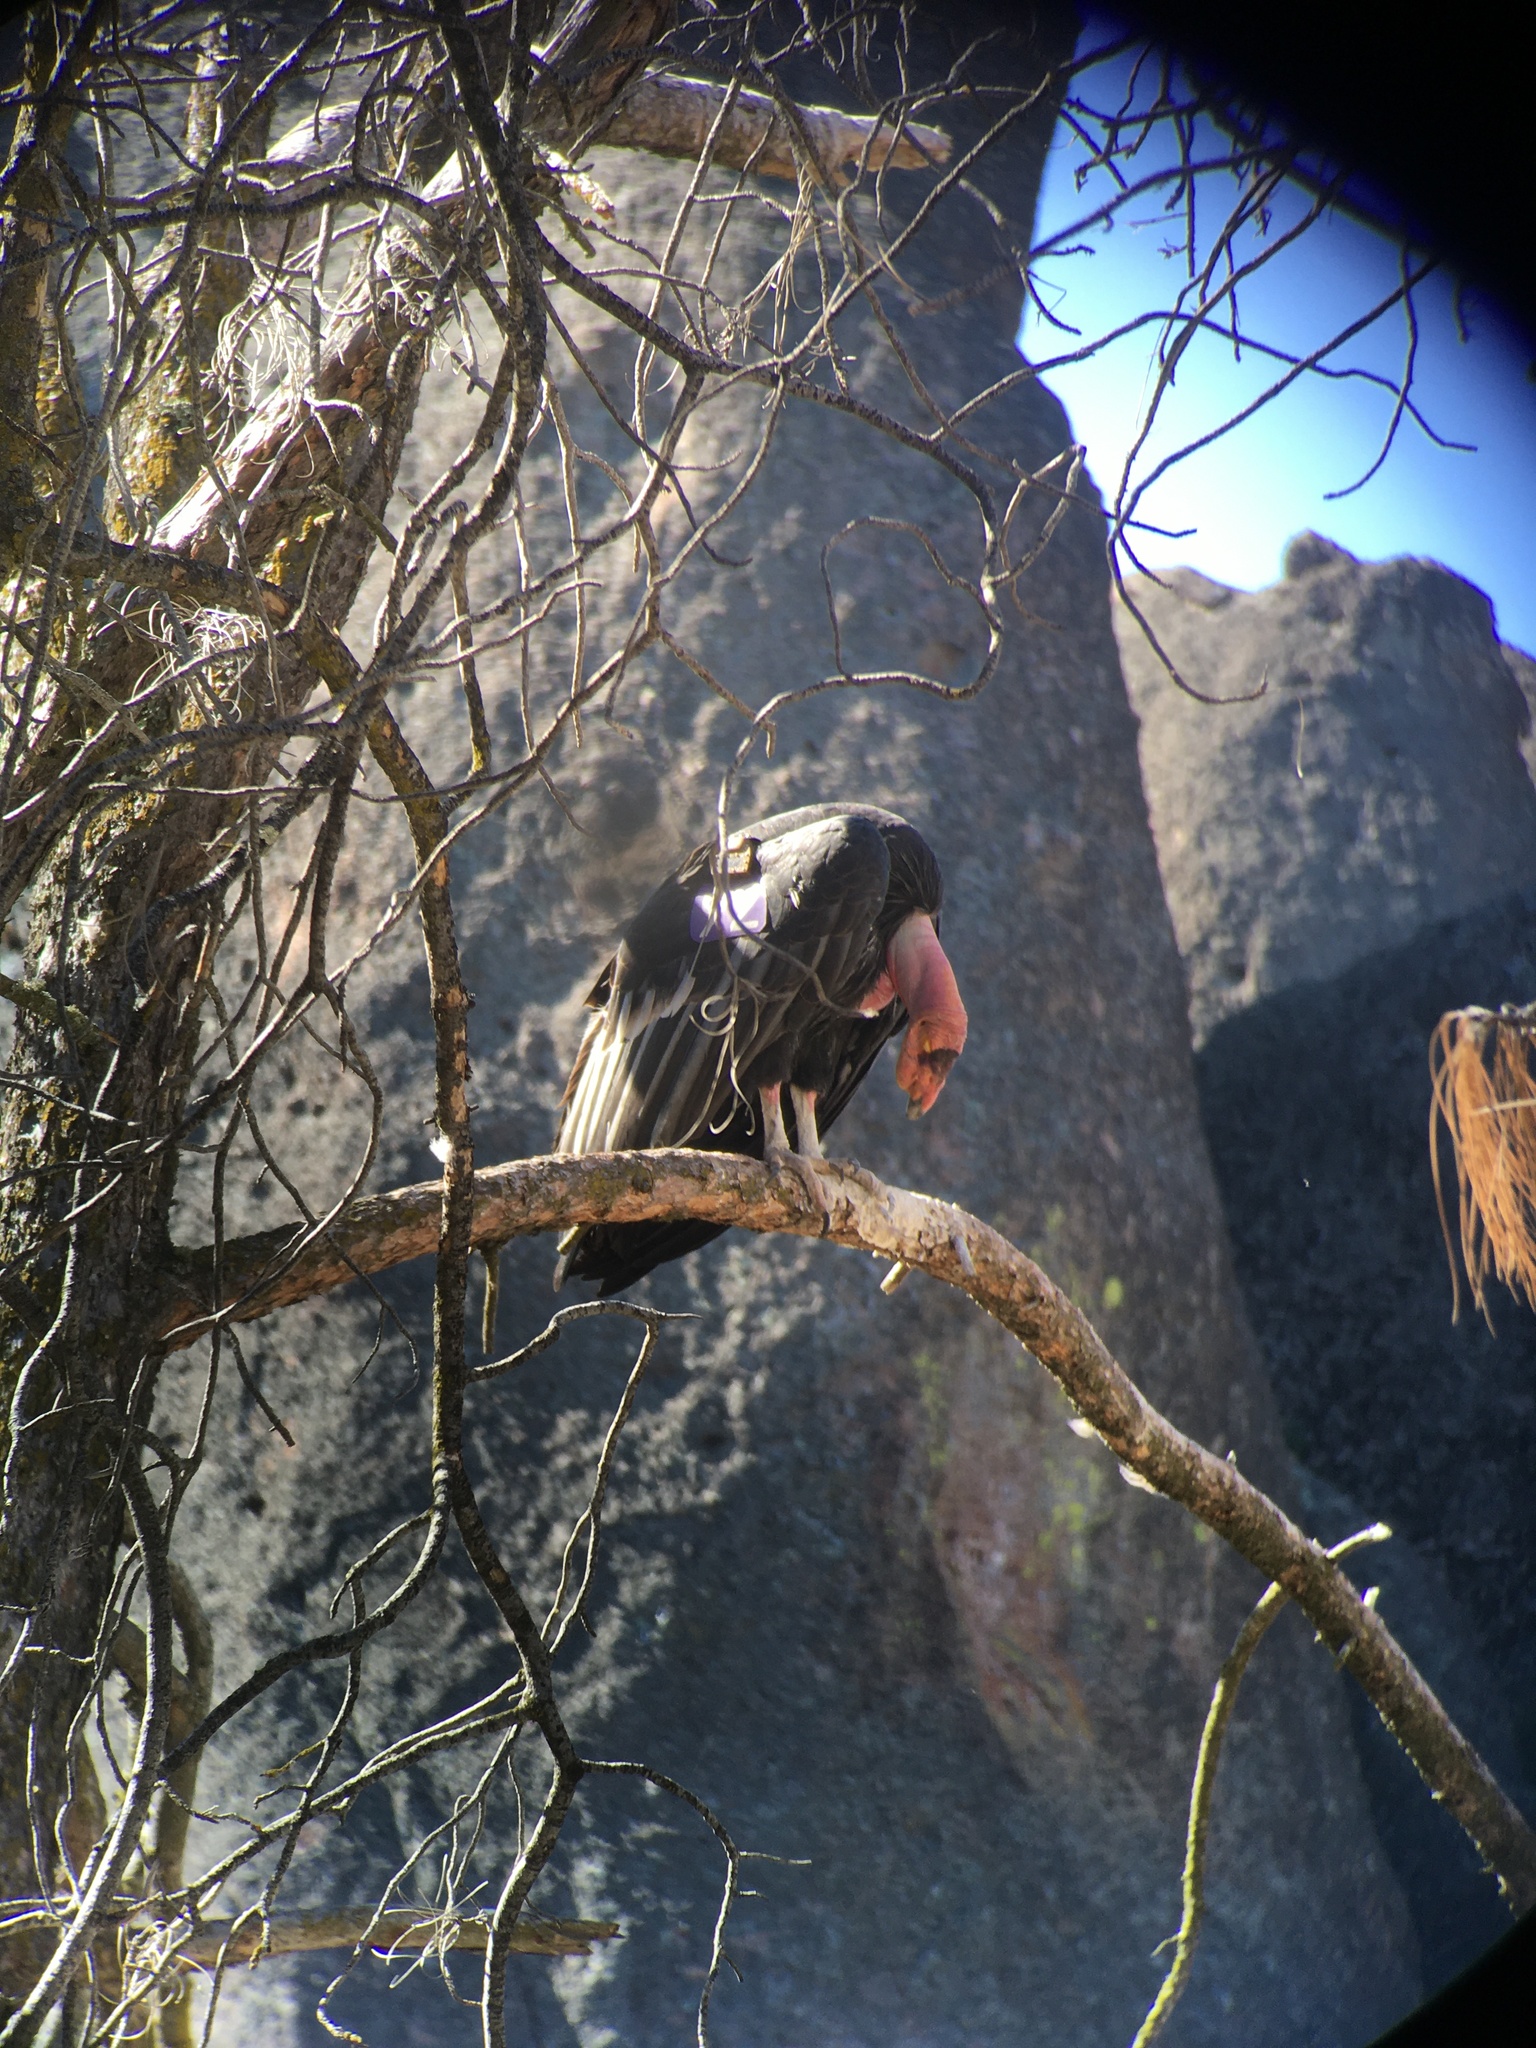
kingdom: Animalia
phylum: Chordata
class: Aves
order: Accipitriformes
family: Cathartidae
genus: Gymnogyps
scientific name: Gymnogyps californianus
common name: California condor
